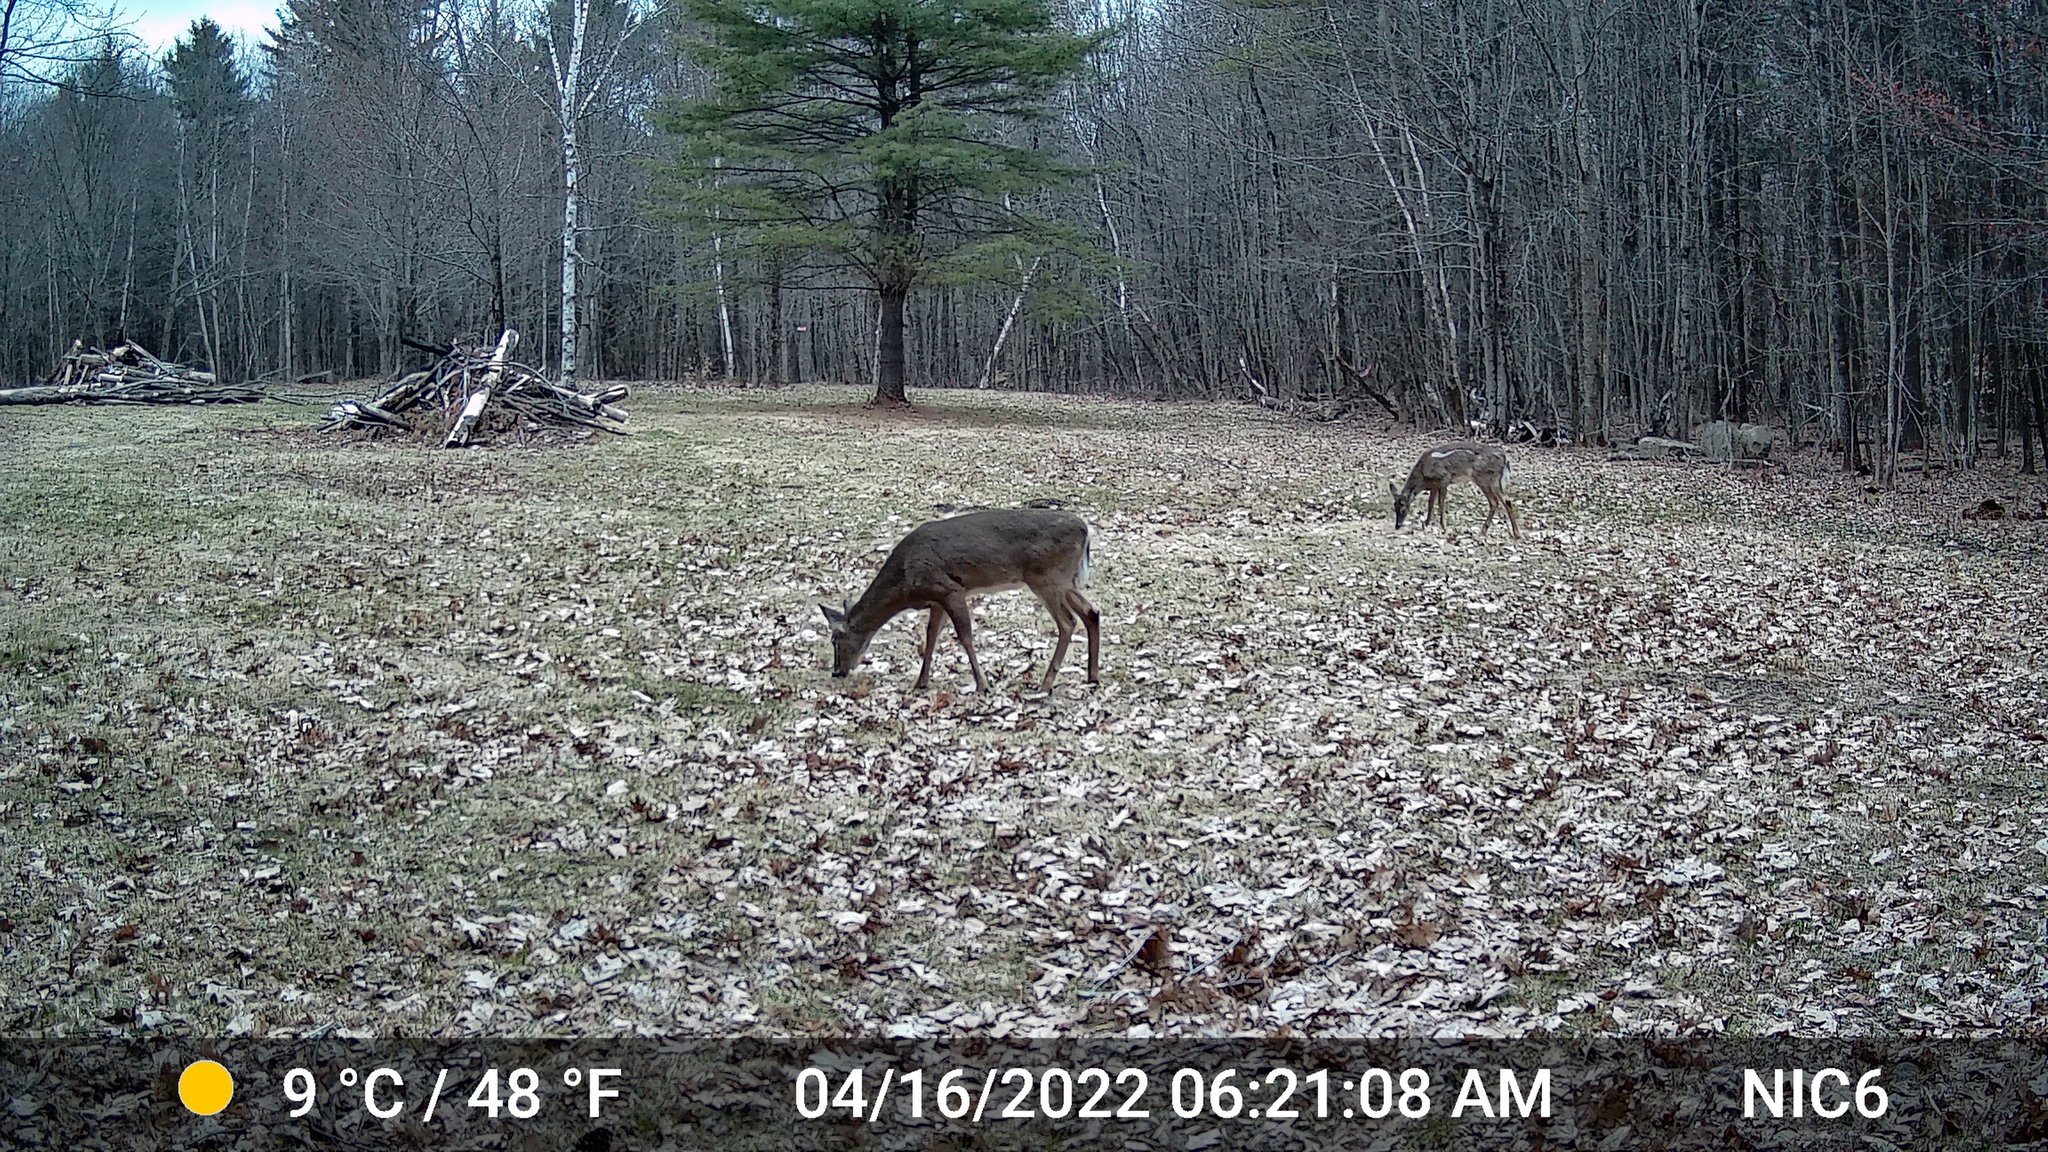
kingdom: Animalia
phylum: Chordata
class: Mammalia
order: Artiodactyla
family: Cervidae
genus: Odocoileus
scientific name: Odocoileus virginianus
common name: White-tailed deer
